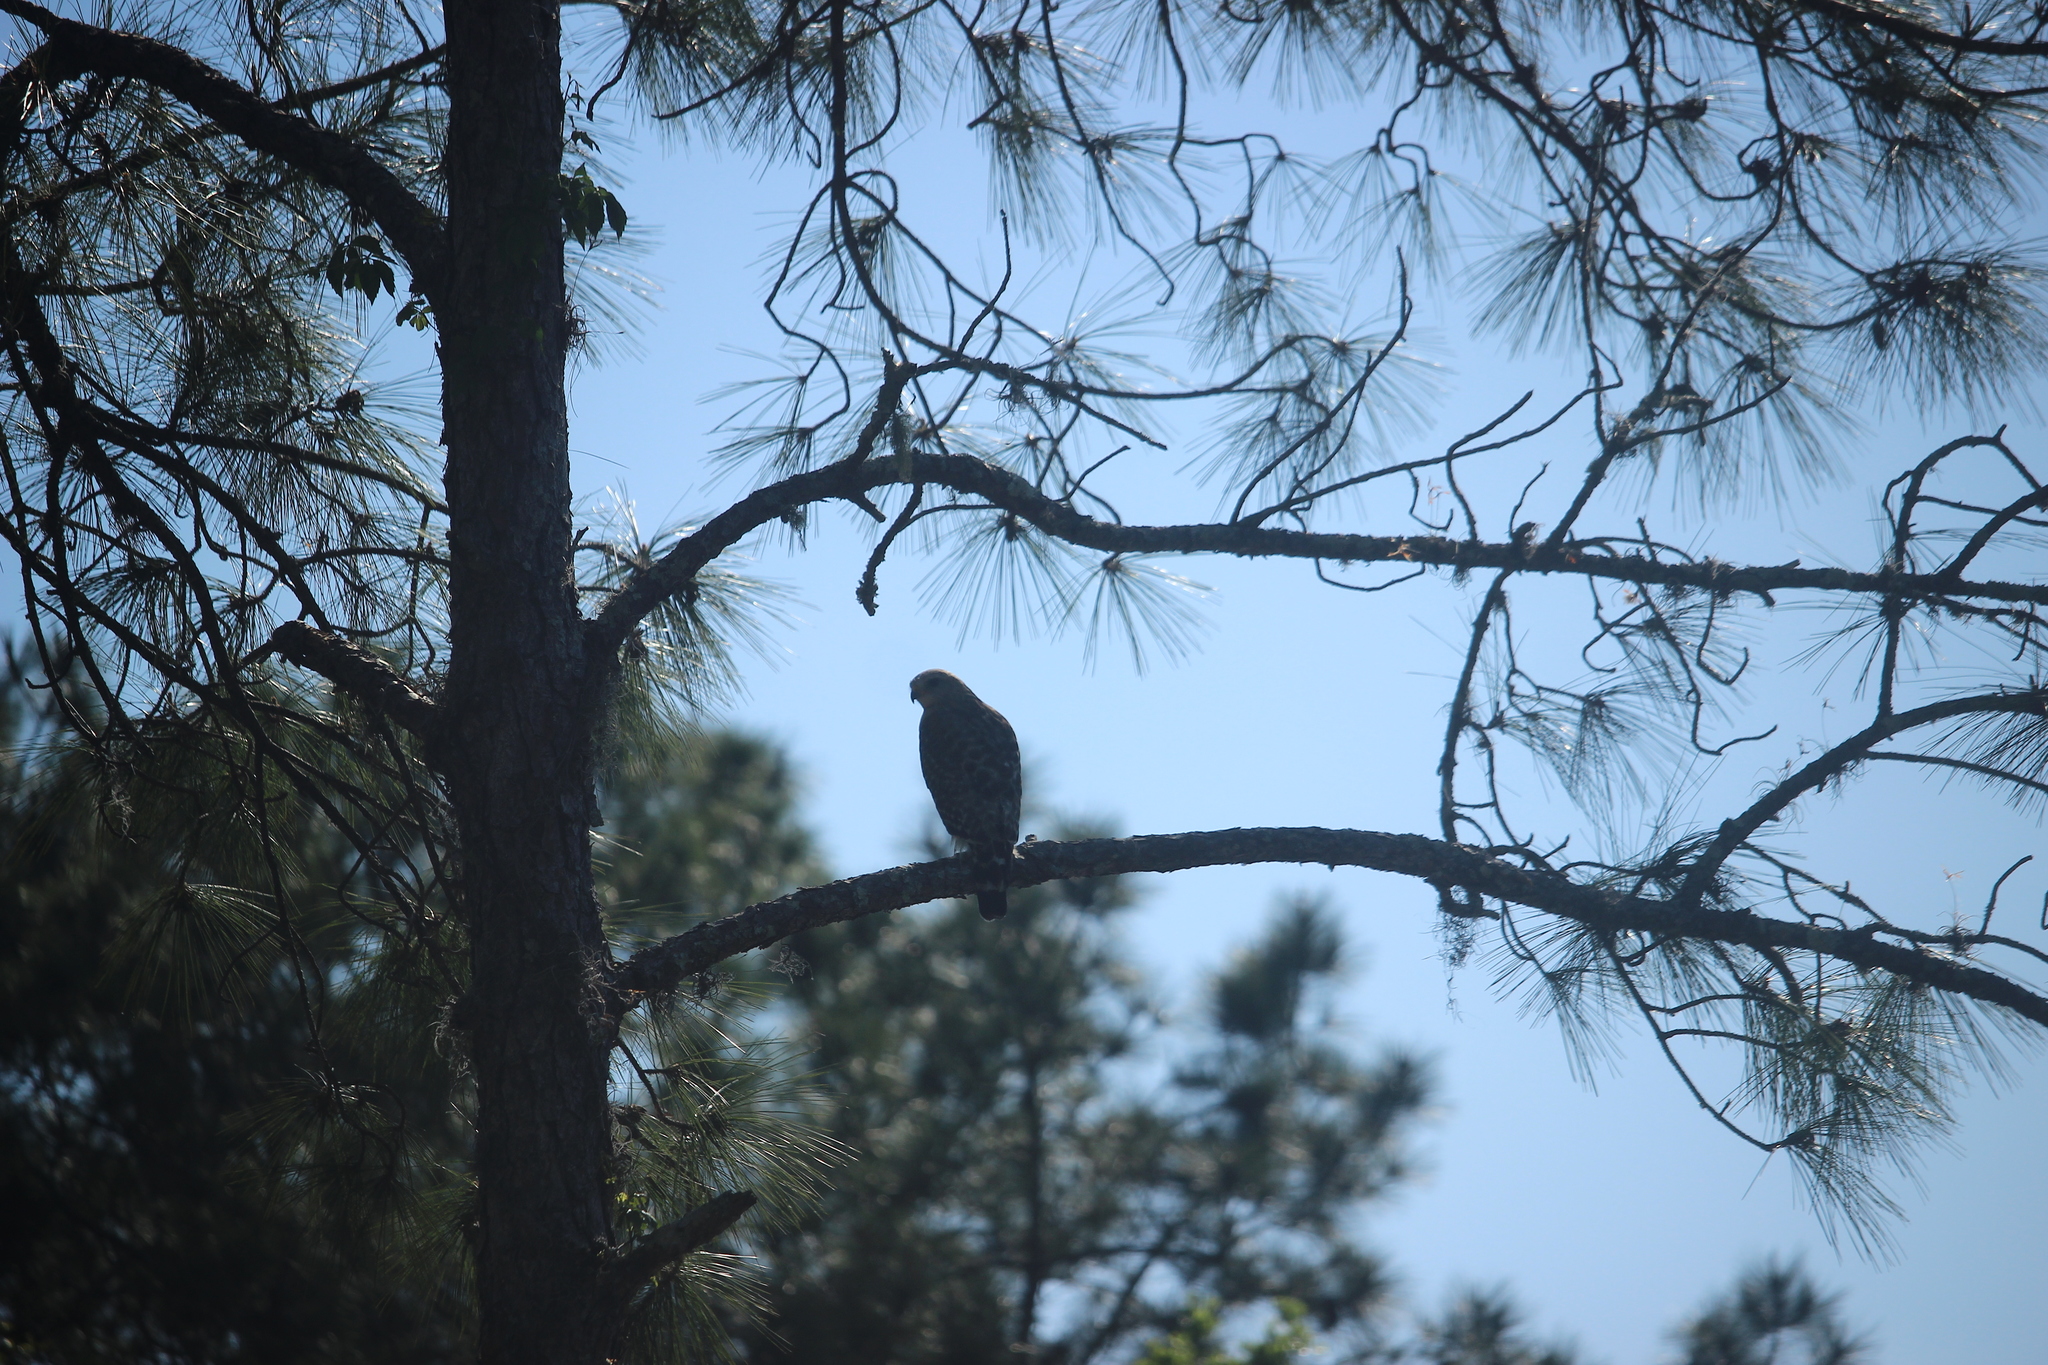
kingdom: Animalia
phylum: Chordata
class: Aves
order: Accipitriformes
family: Accipitridae
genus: Buteo
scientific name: Buteo lineatus
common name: Red-shouldered hawk
